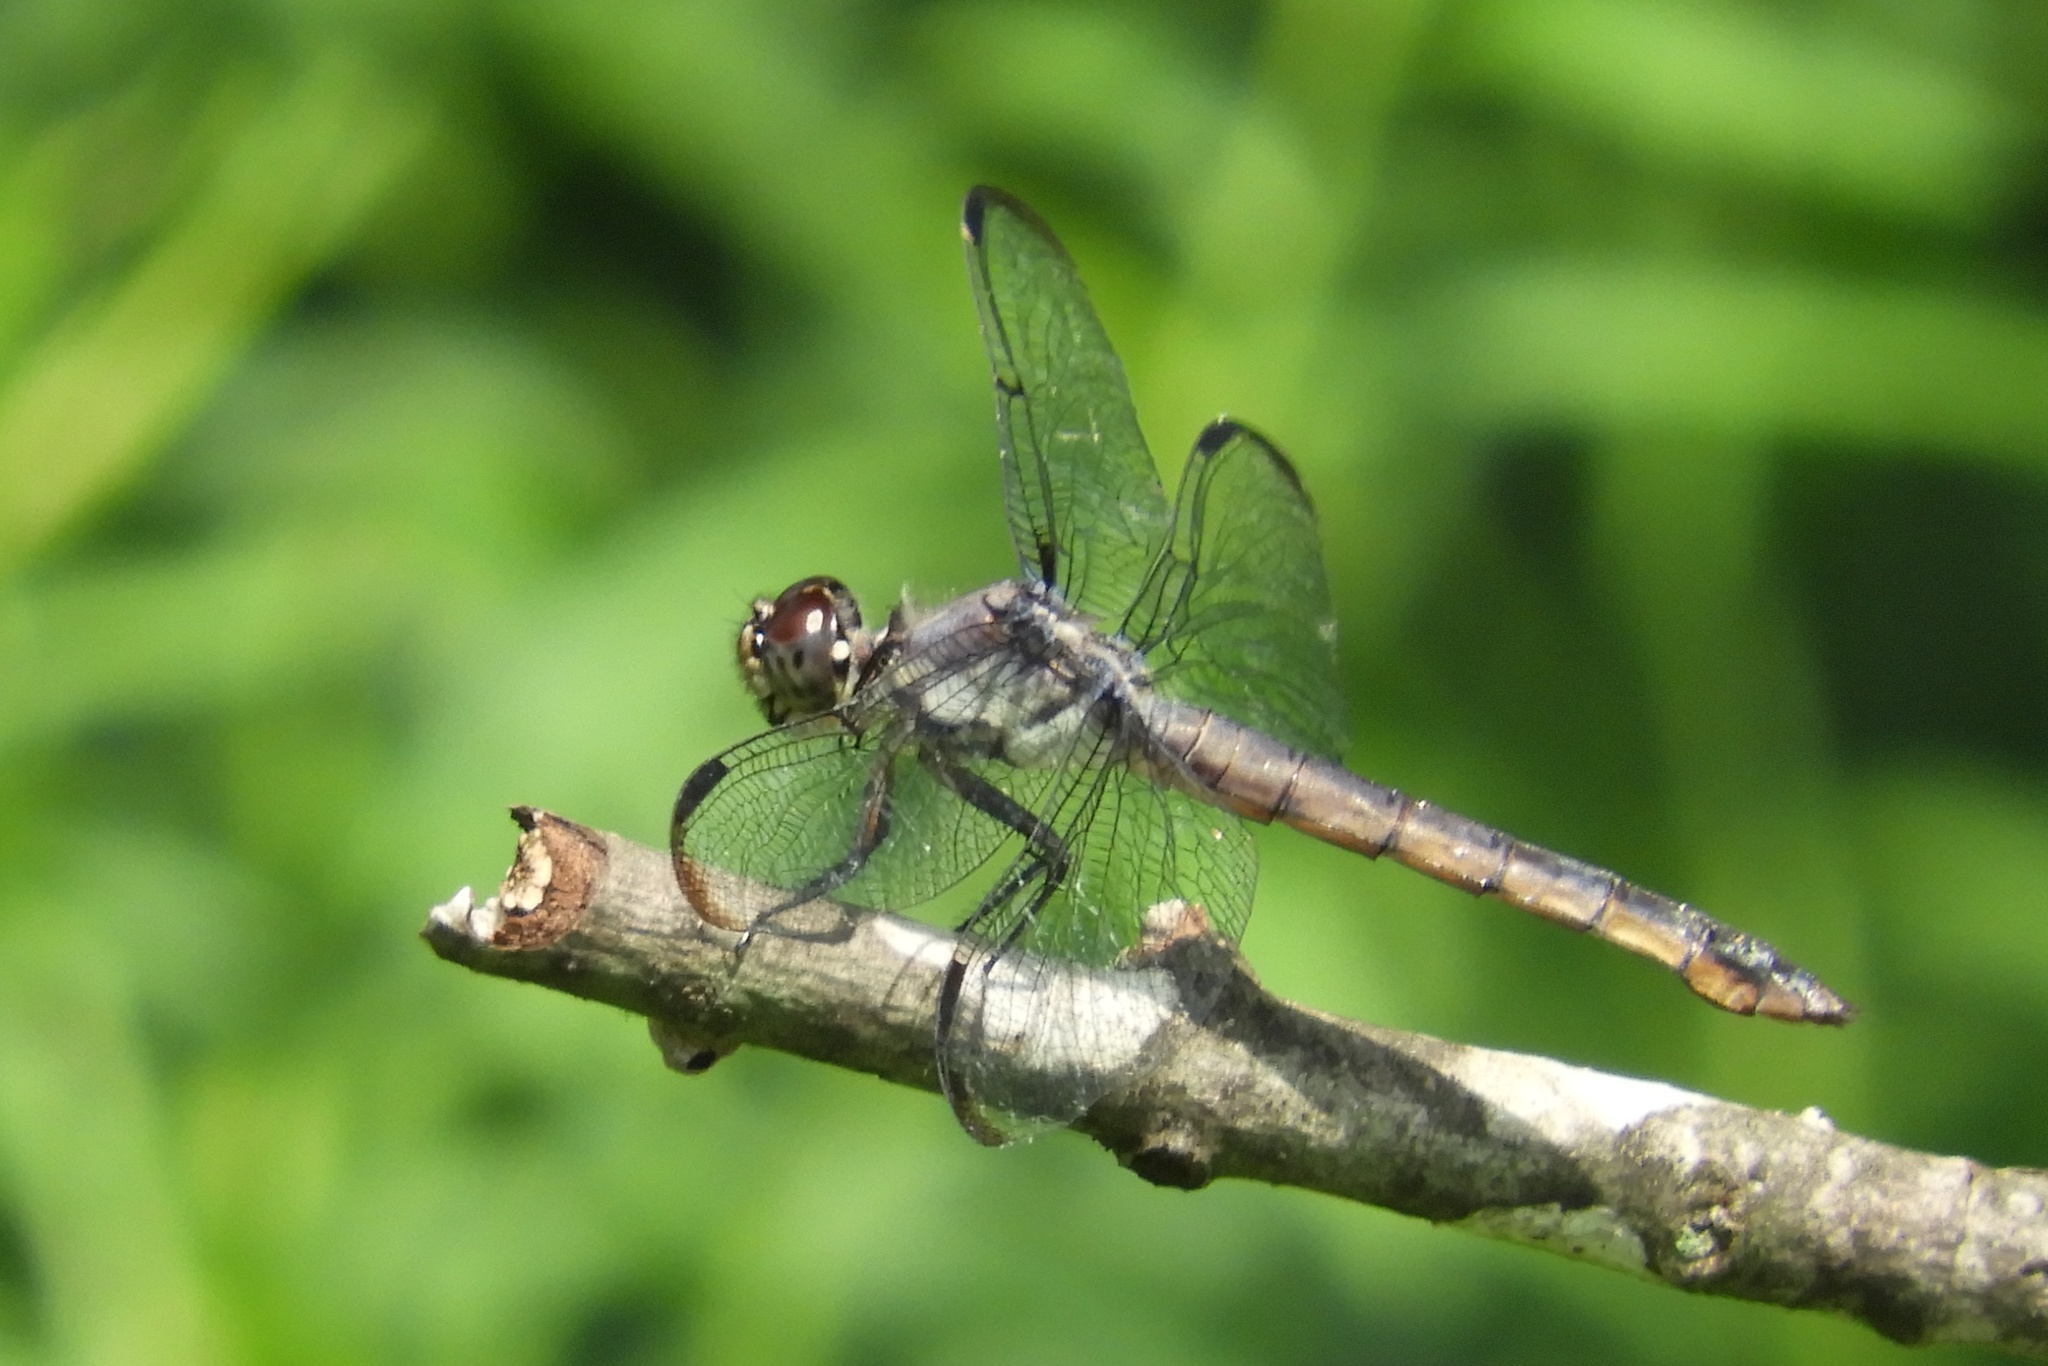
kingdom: Animalia
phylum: Arthropoda
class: Insecta
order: Odonata
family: Libellulidae
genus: Libellula
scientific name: Libellula incesta
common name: Slaty skimmer
